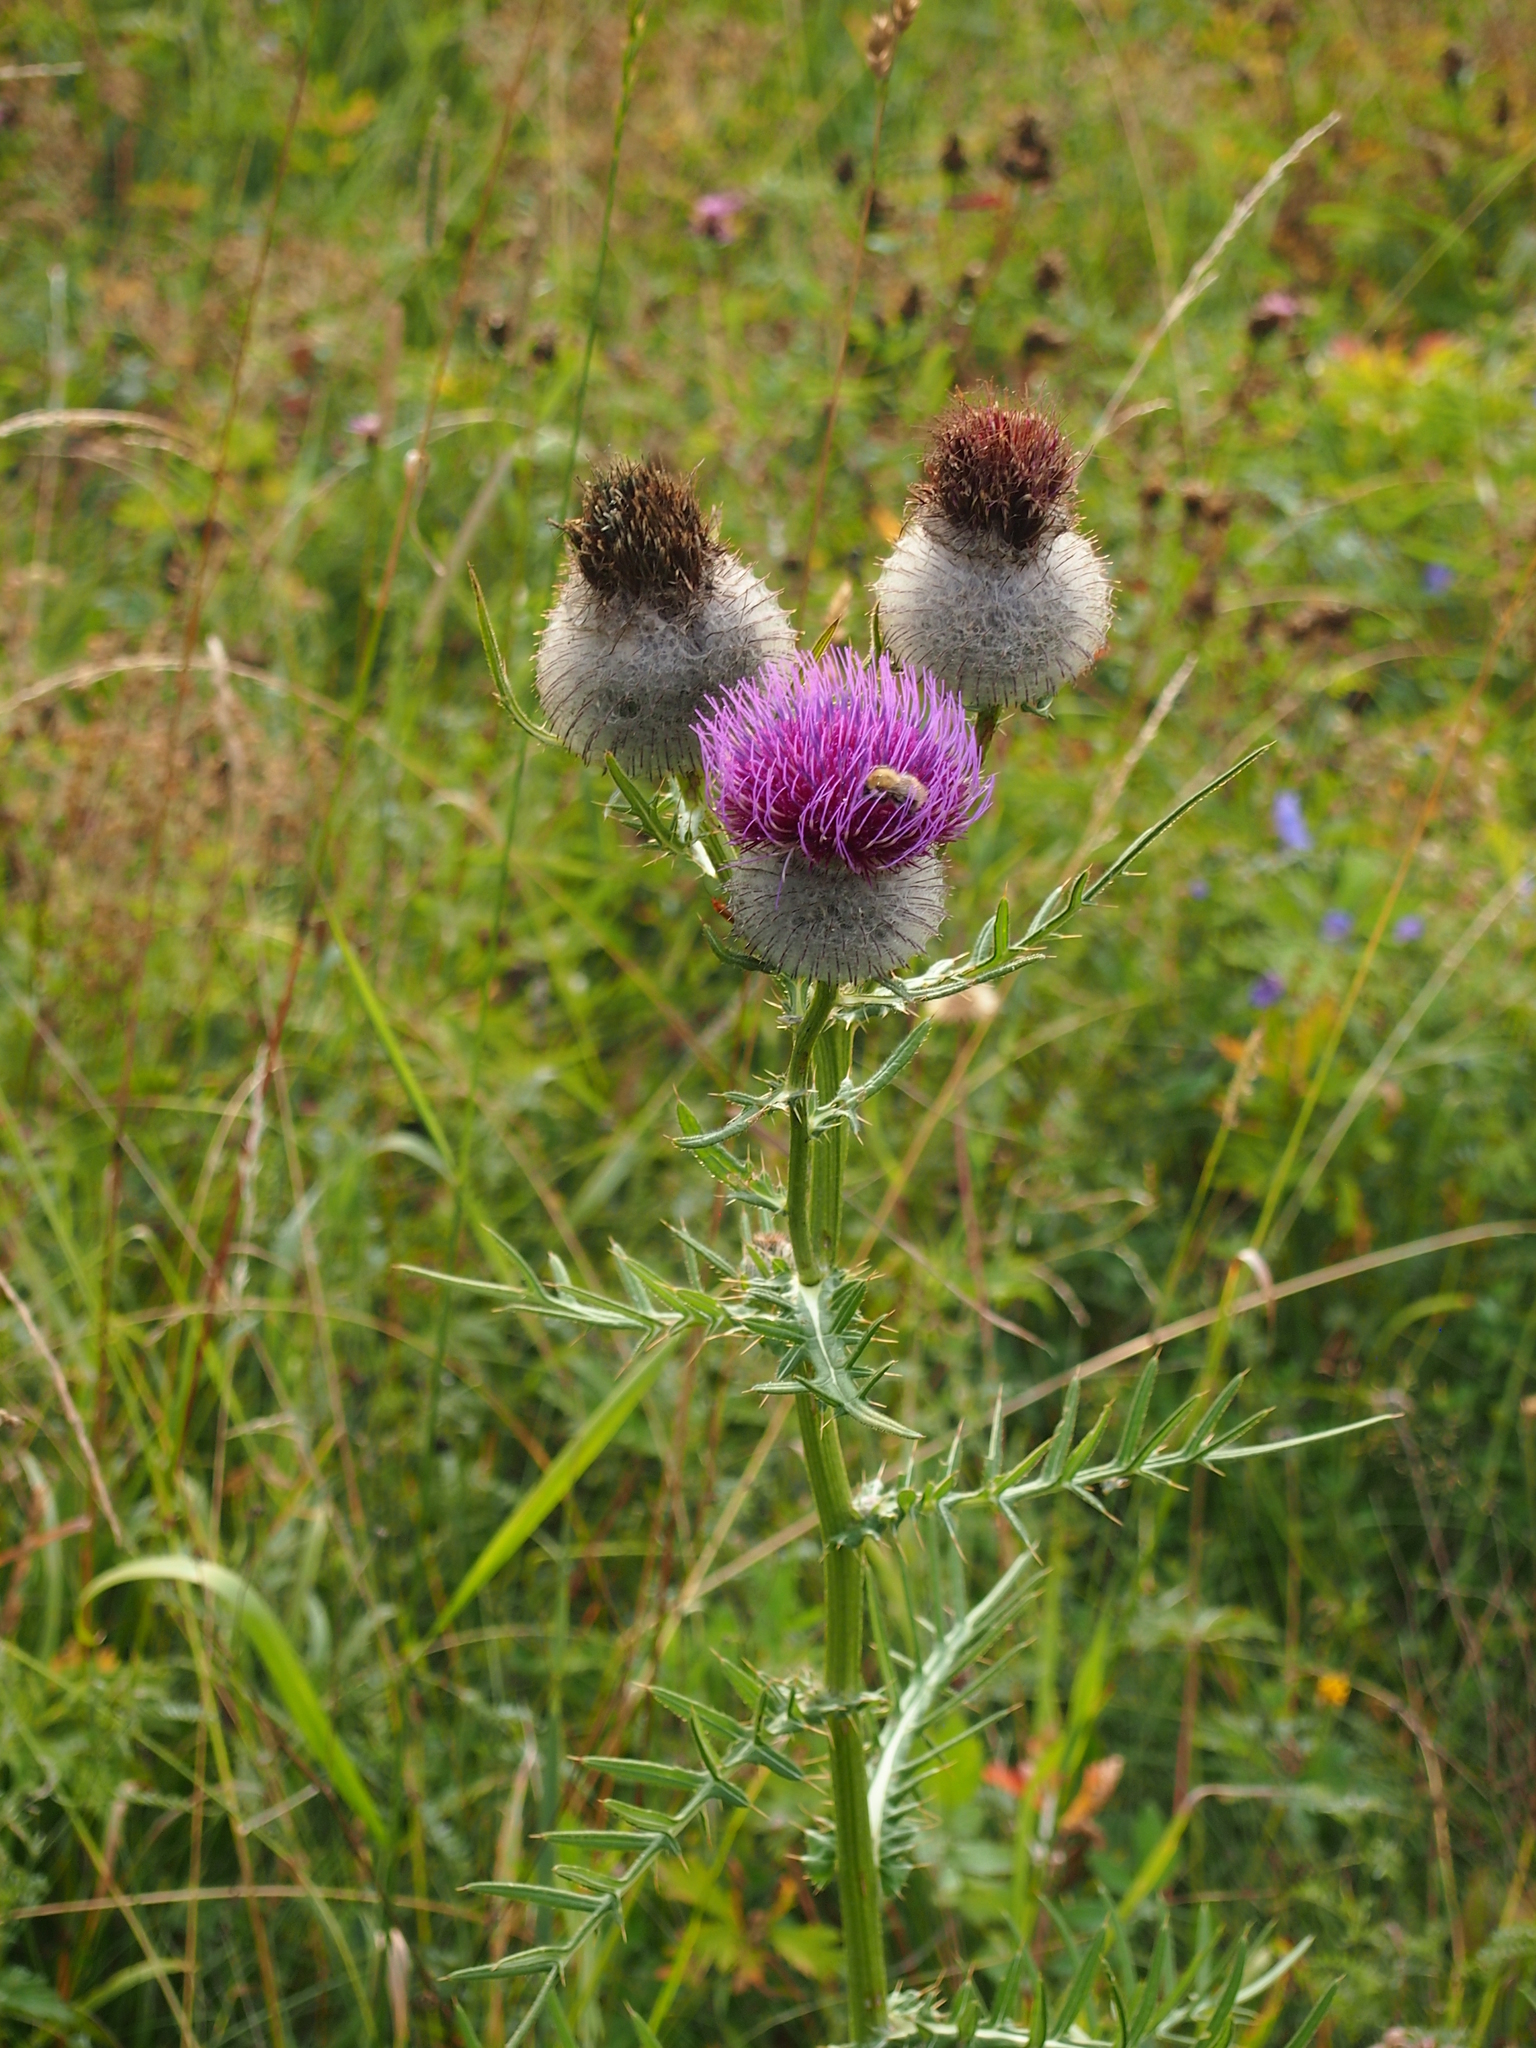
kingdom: Plantae
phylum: Tracheophyta
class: Magnoliopsida
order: Asterales
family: Asteraceae
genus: Lophiolepis
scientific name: Lophiolepis eriophora
